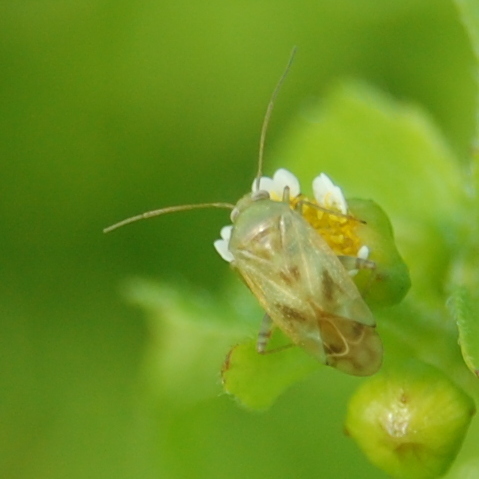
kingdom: Animalia
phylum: Arthropoda
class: Insecta
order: Hemiptera
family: Miridae
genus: Taylorilygus
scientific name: Taylorilygus apicalis
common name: Plant bug
